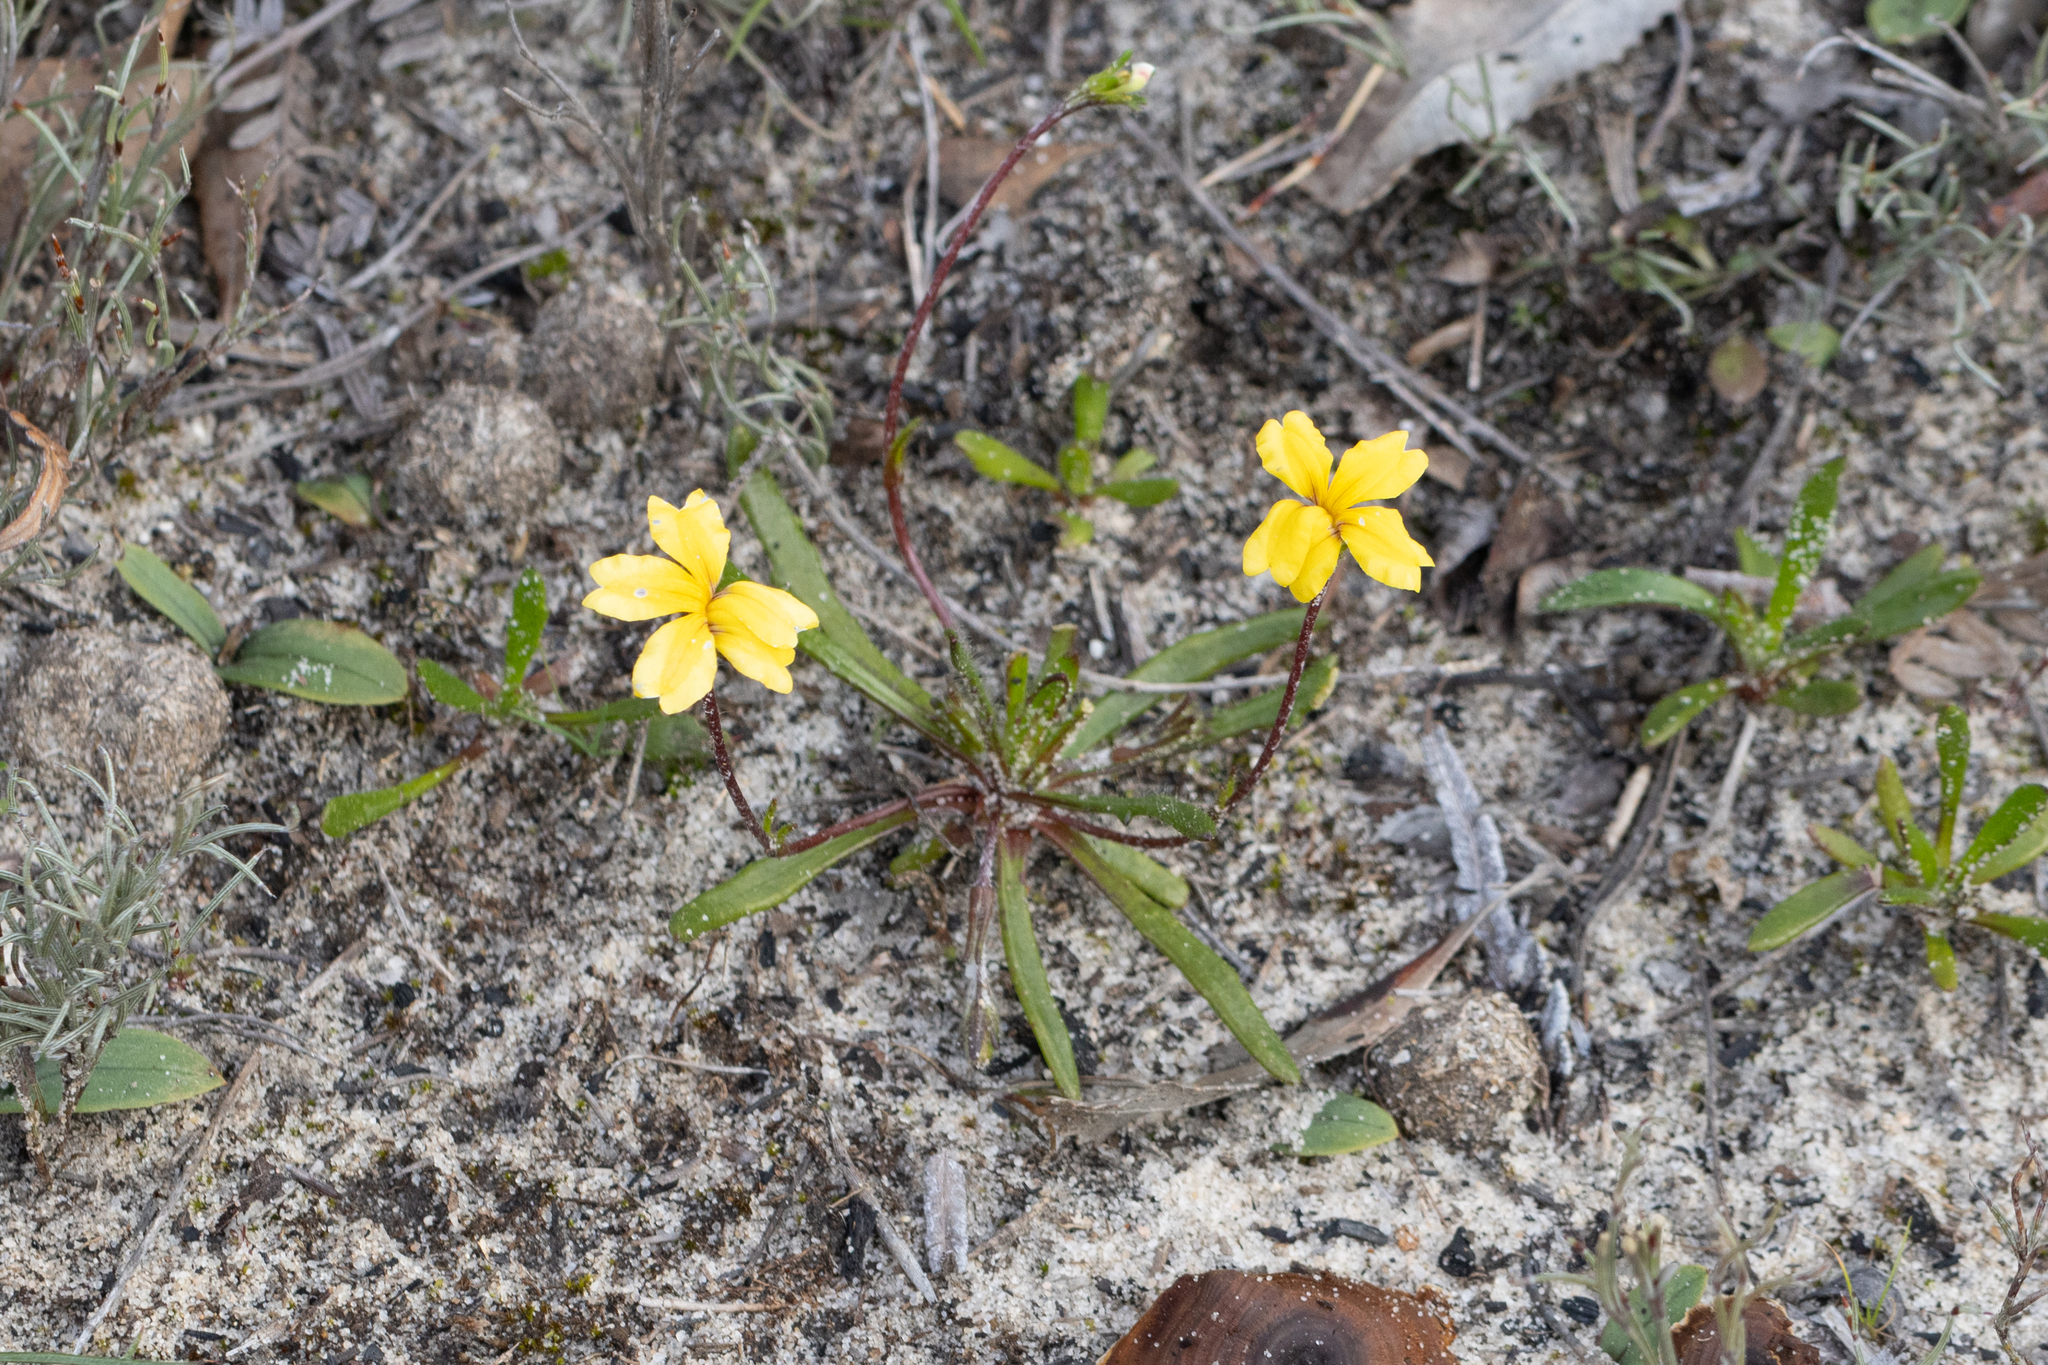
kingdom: Plantae
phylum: Tracheophyta
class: Magnoliopsida
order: Asterales
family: Goodeniaceae
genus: Goodenia
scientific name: Goodenia geniculata
